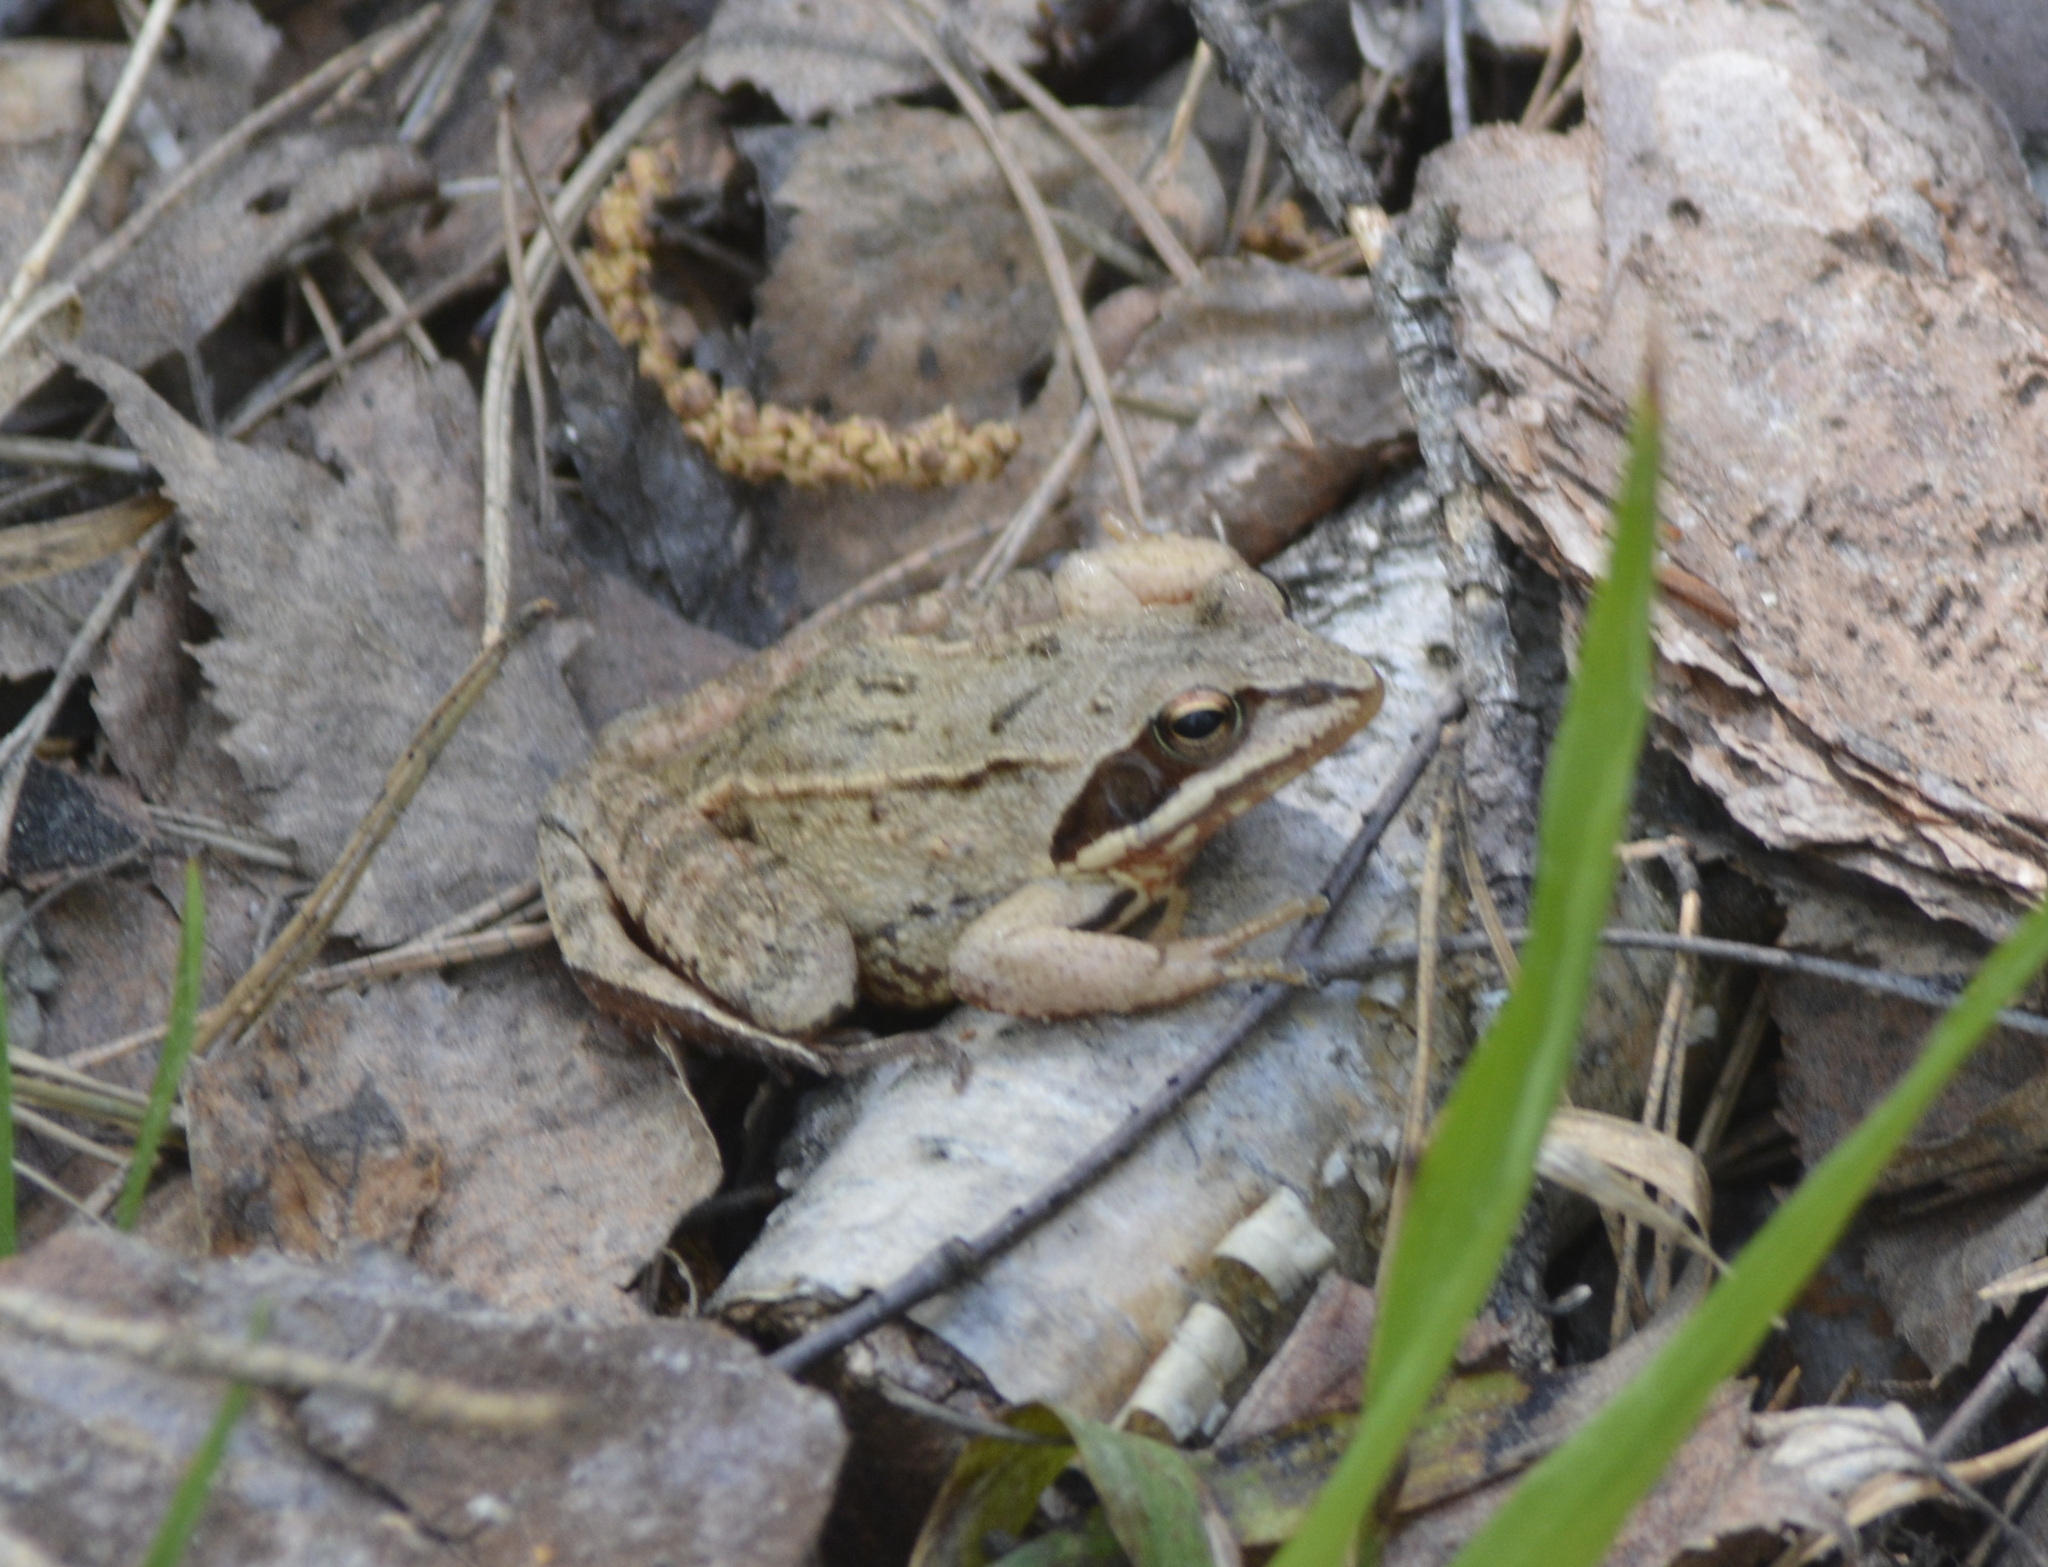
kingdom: Animalia
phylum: Chordata
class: Amphibia
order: Anura
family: Ranidae
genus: Rana
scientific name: Rana arvalis
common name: Moor frog
